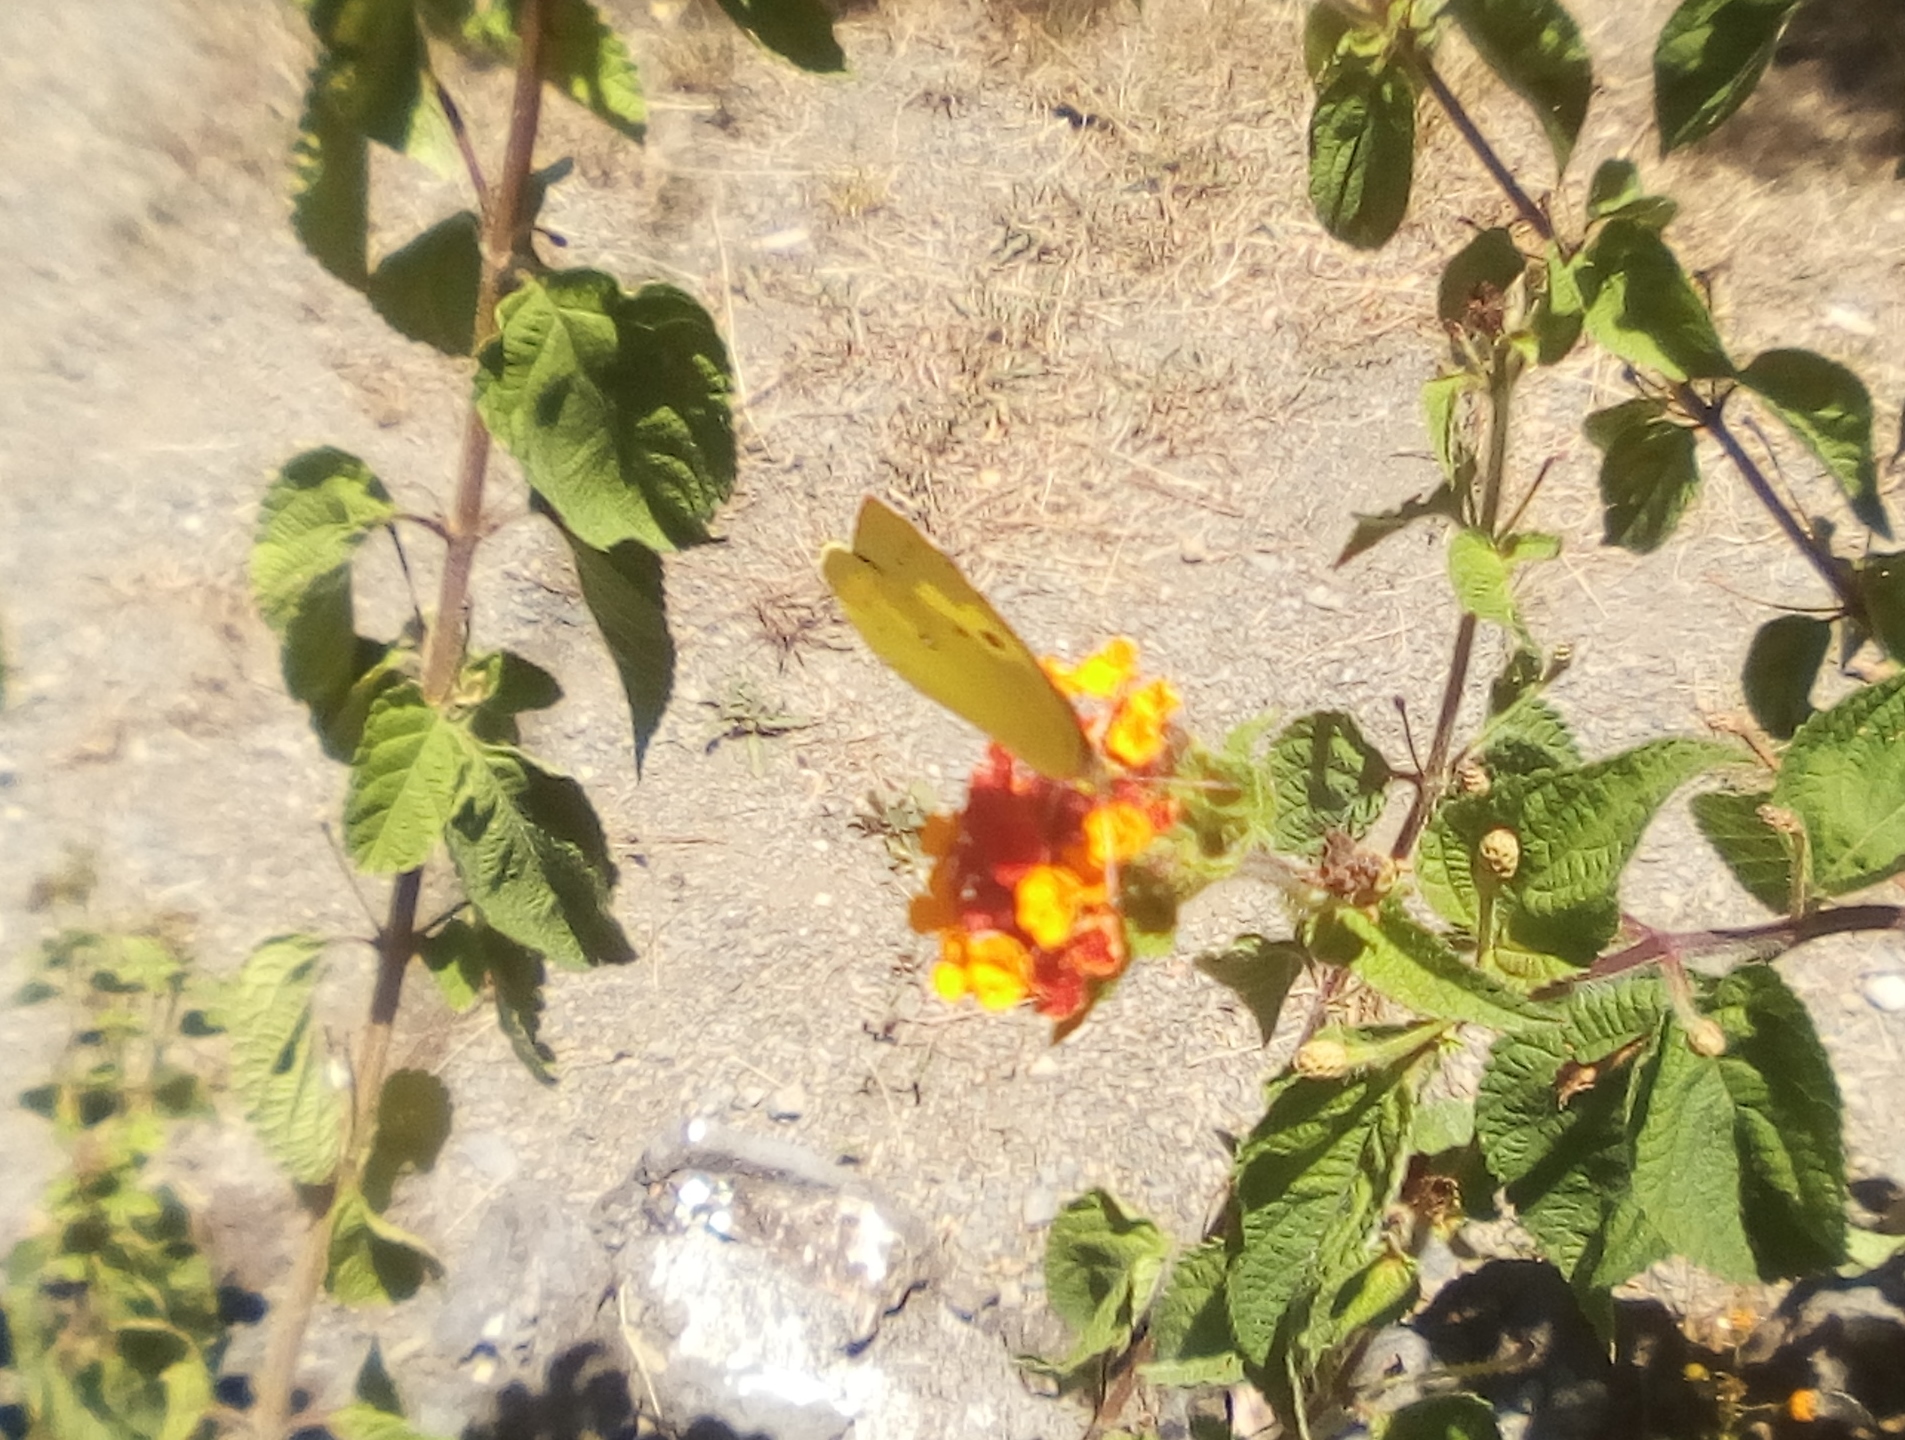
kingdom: Animalia
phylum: Arthropoda
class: Insecta
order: Lepidoptera
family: Pieridae
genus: Zerene
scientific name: Zerene cesonia
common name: Southern dogface
